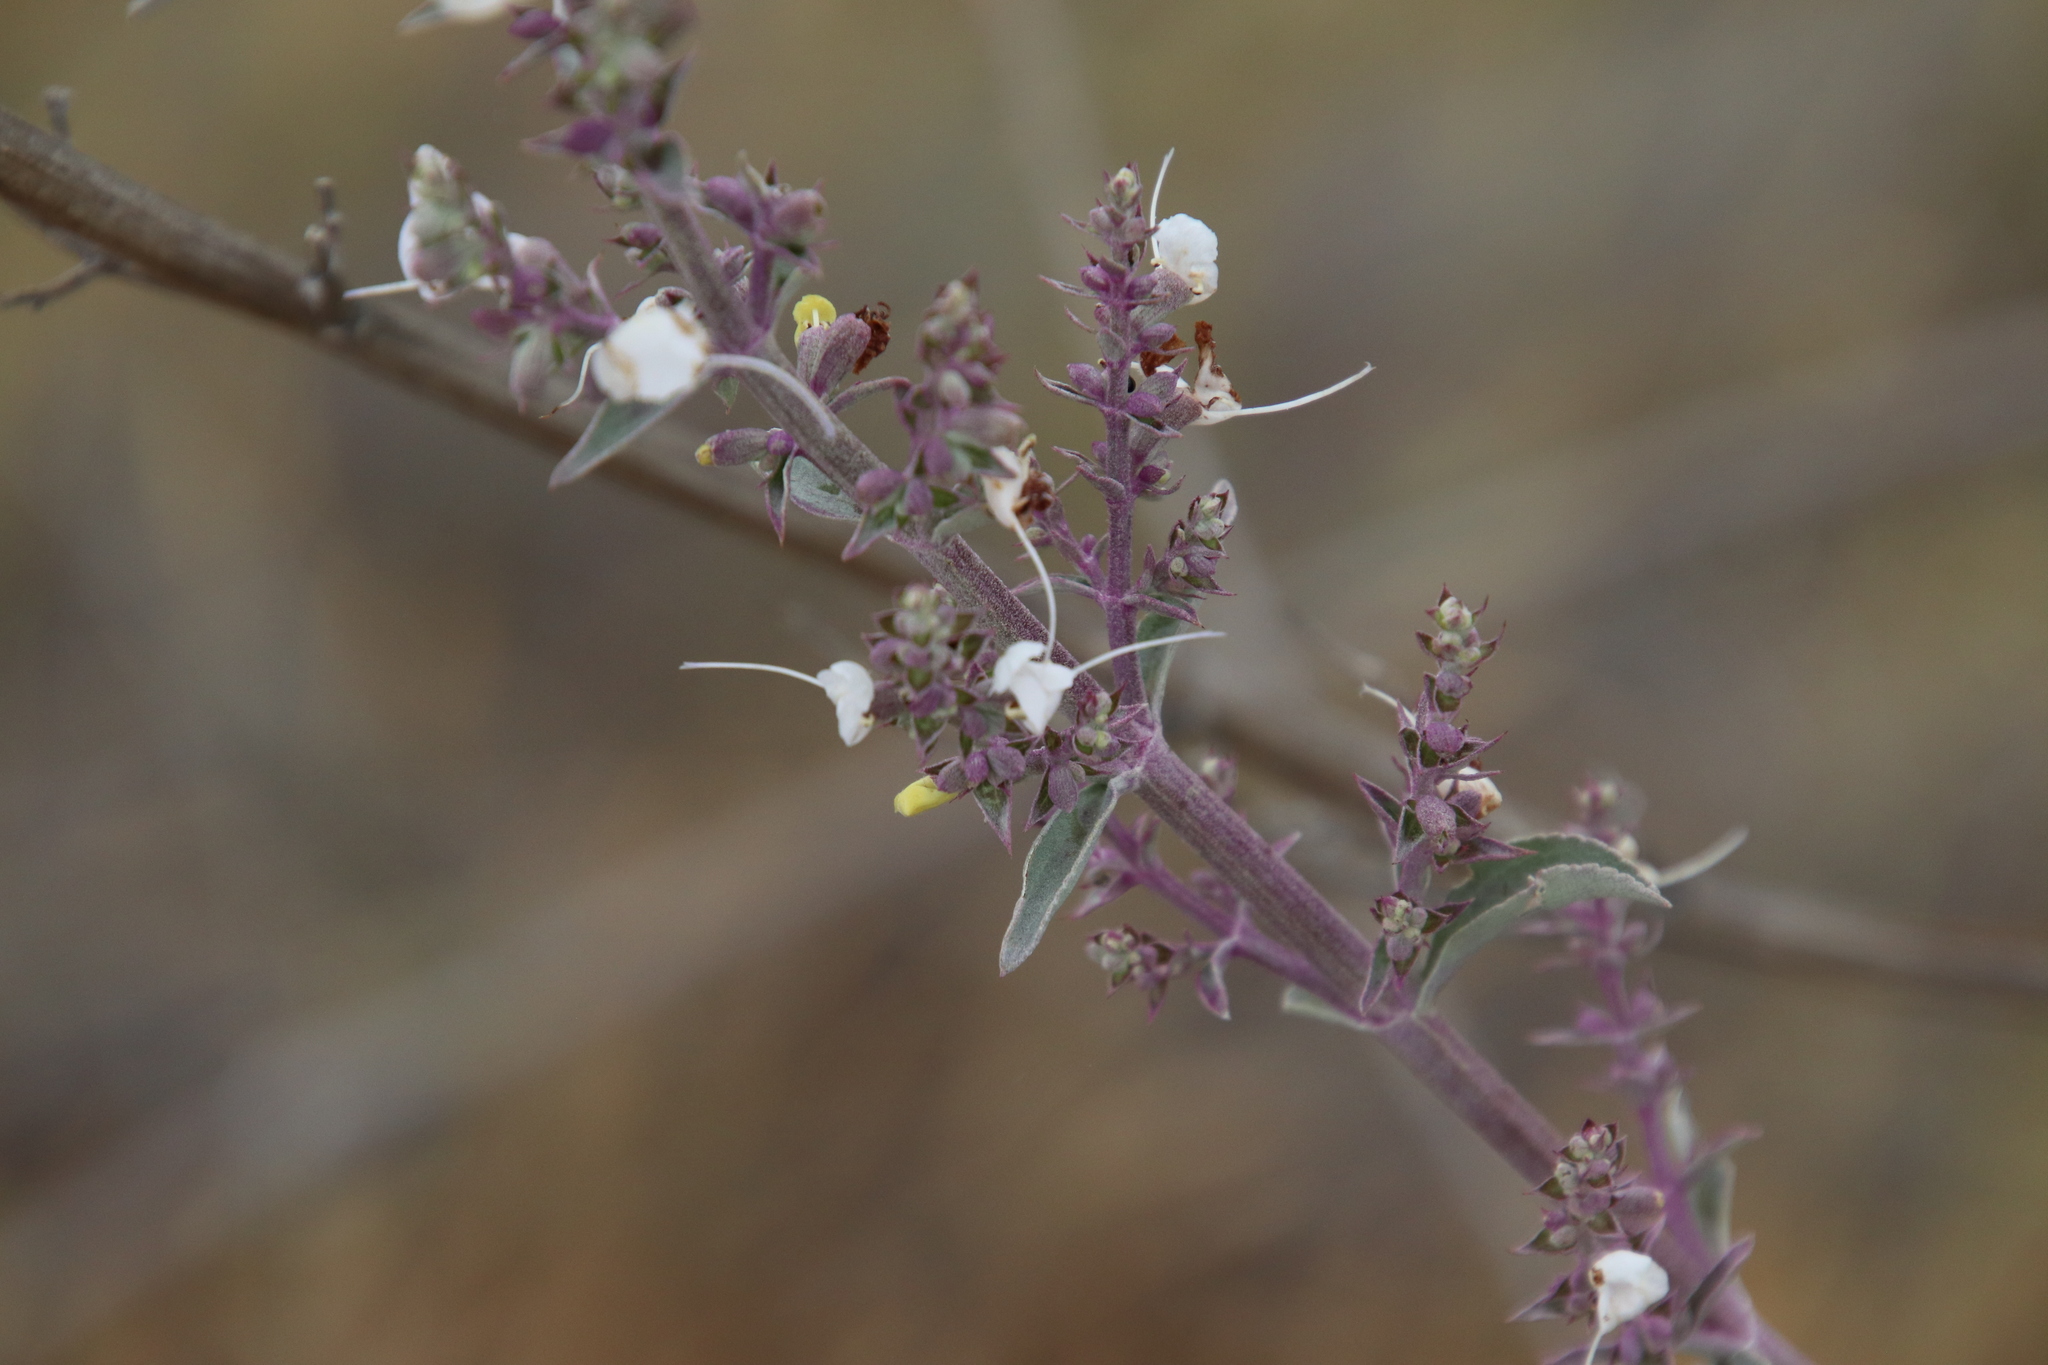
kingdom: Plantae
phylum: Tracheophyta
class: Magnoliopsida
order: Lamiales
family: Lamiaceae
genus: Salvia
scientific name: Salvia apiana
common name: White sage
